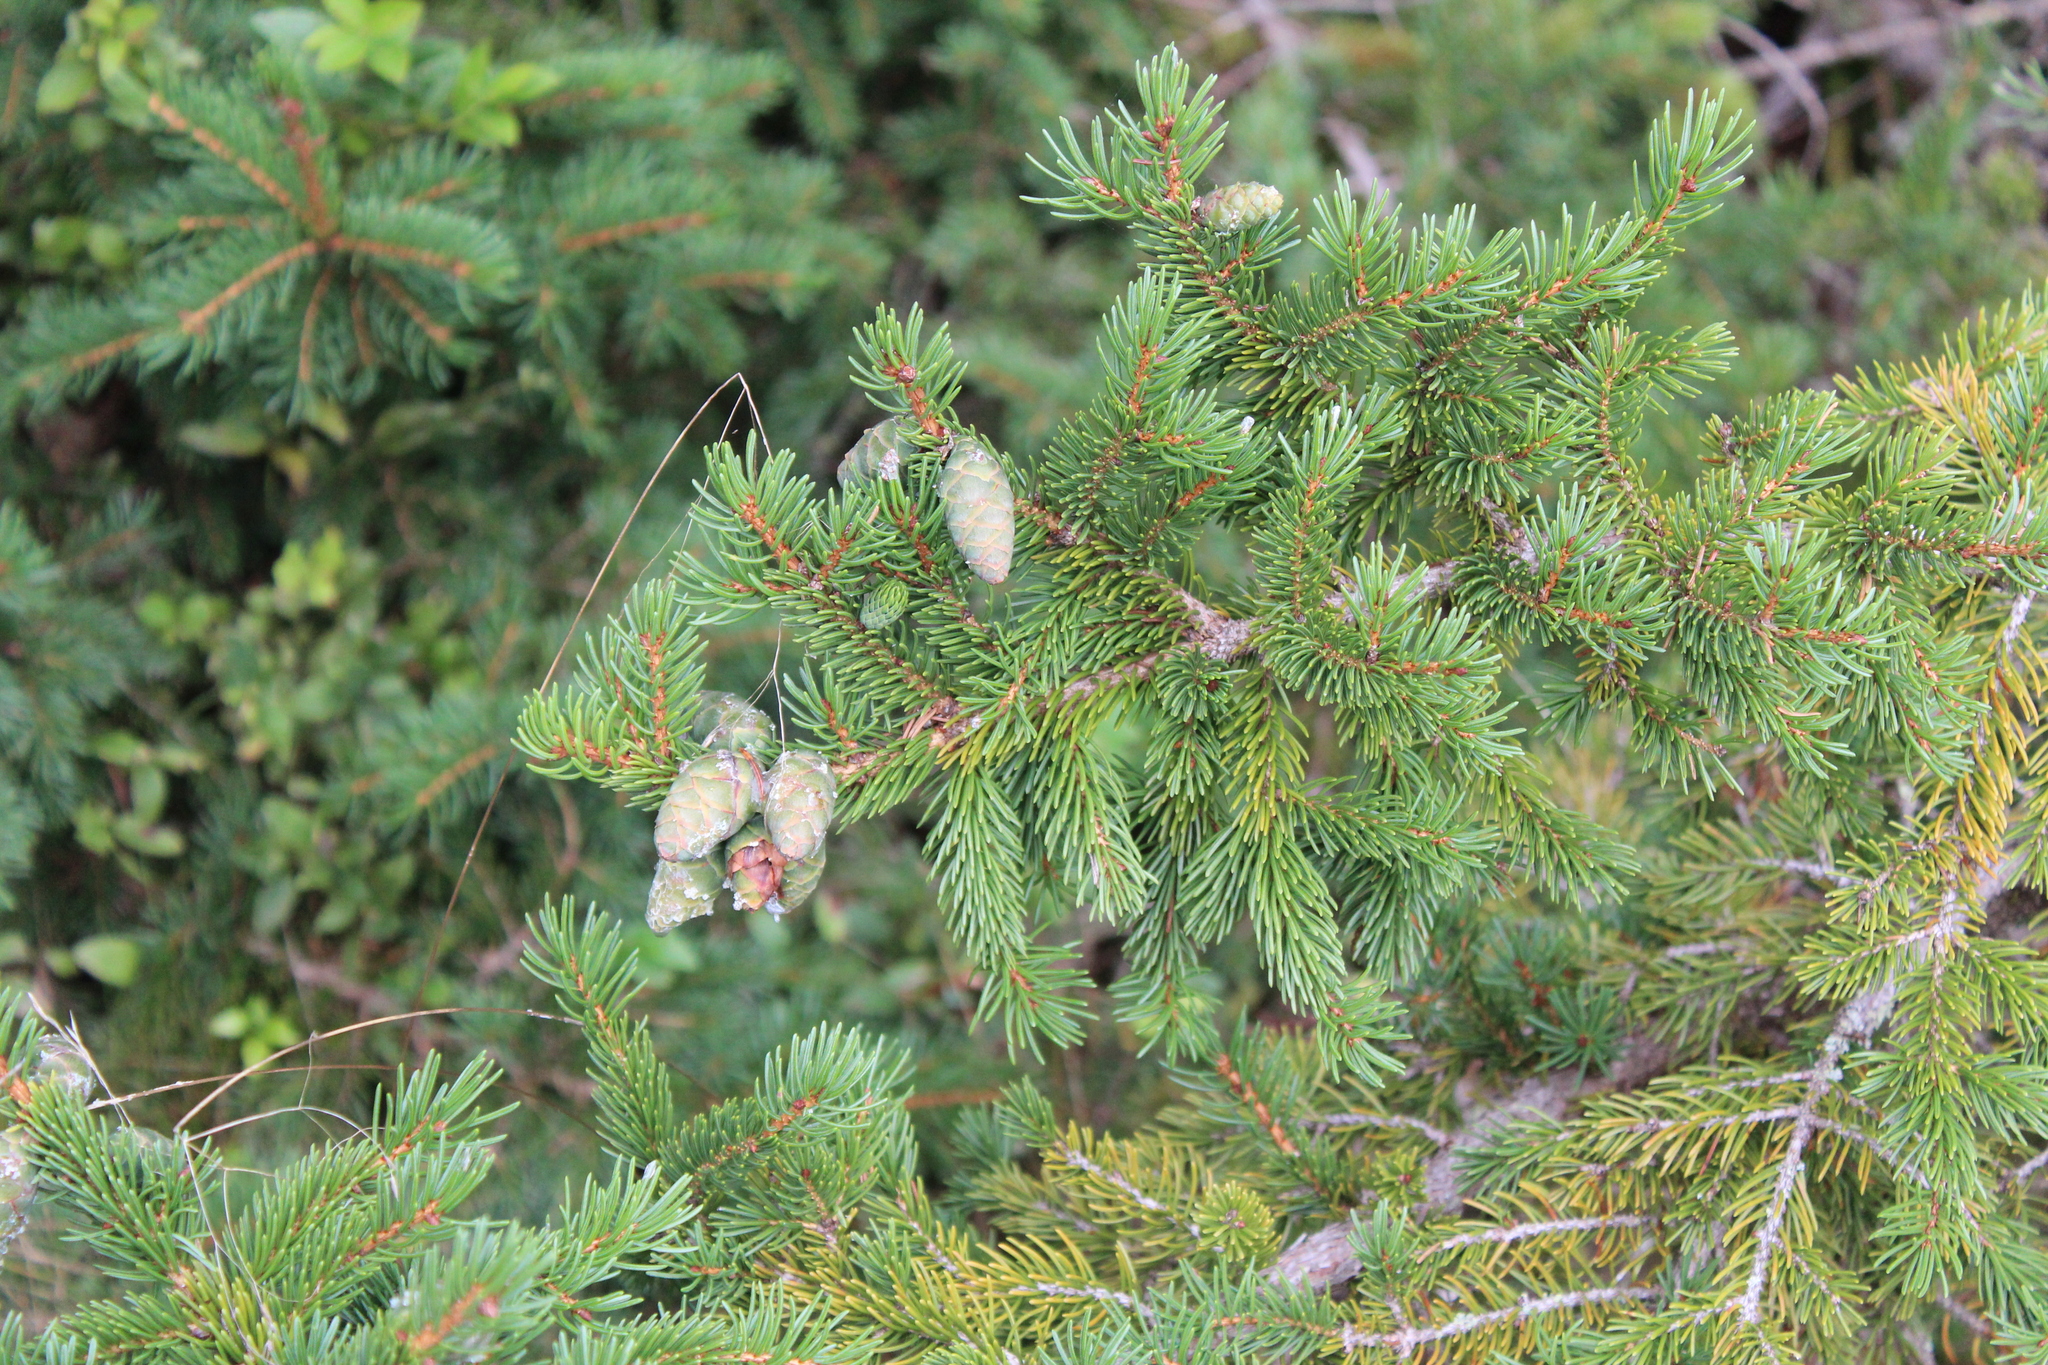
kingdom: Plantae
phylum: Tracheophyta
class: Pinopsida
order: Pinales
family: Pinaceae
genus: Picea
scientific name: Picea rubens
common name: Red spruce
